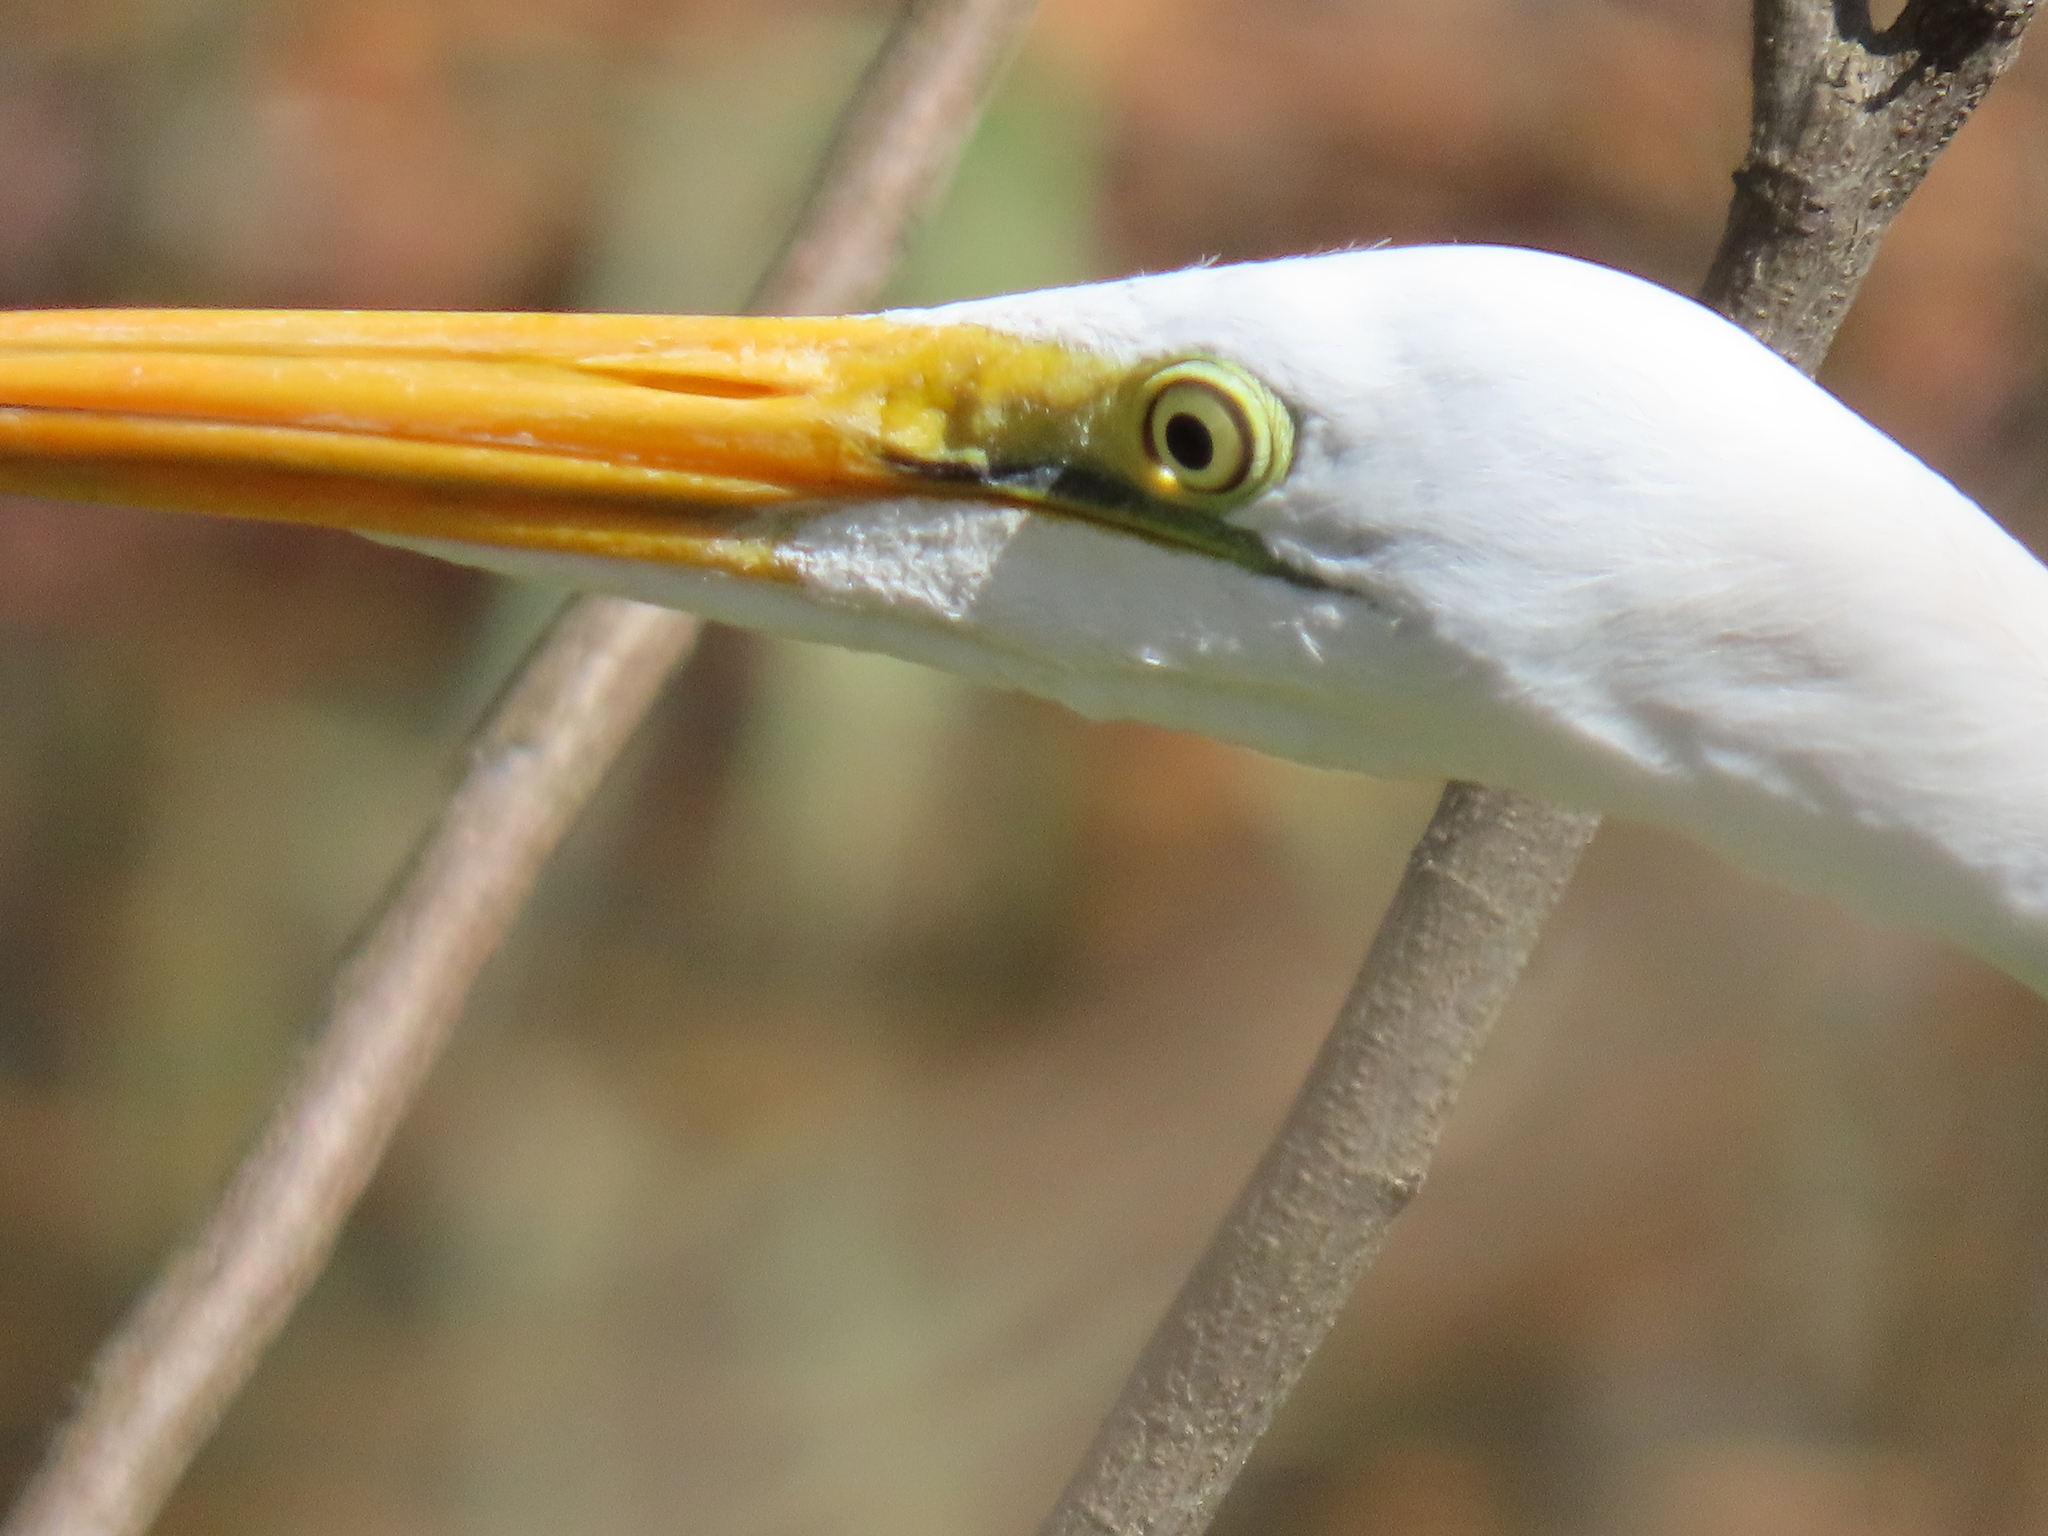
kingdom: Animalia
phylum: Chordata
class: Aves
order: Pelecaniformes
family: Ardeidae
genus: Ardea
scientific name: Ardea alba
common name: Great egret
